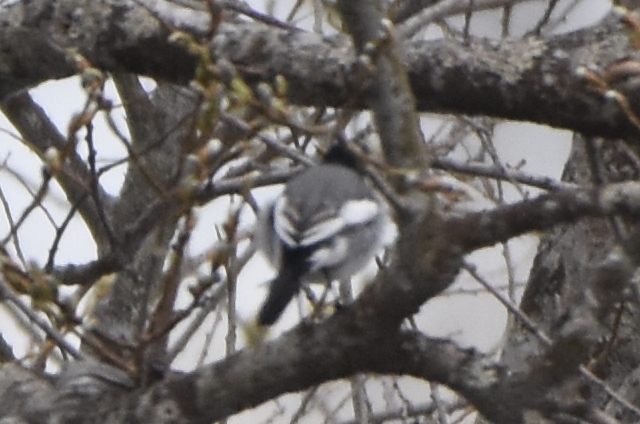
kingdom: Animalia
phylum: Chordata
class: Aves
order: Passeriformes
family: Motacillidae
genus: Motacilla
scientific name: Motacilla alba
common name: White wagtail
